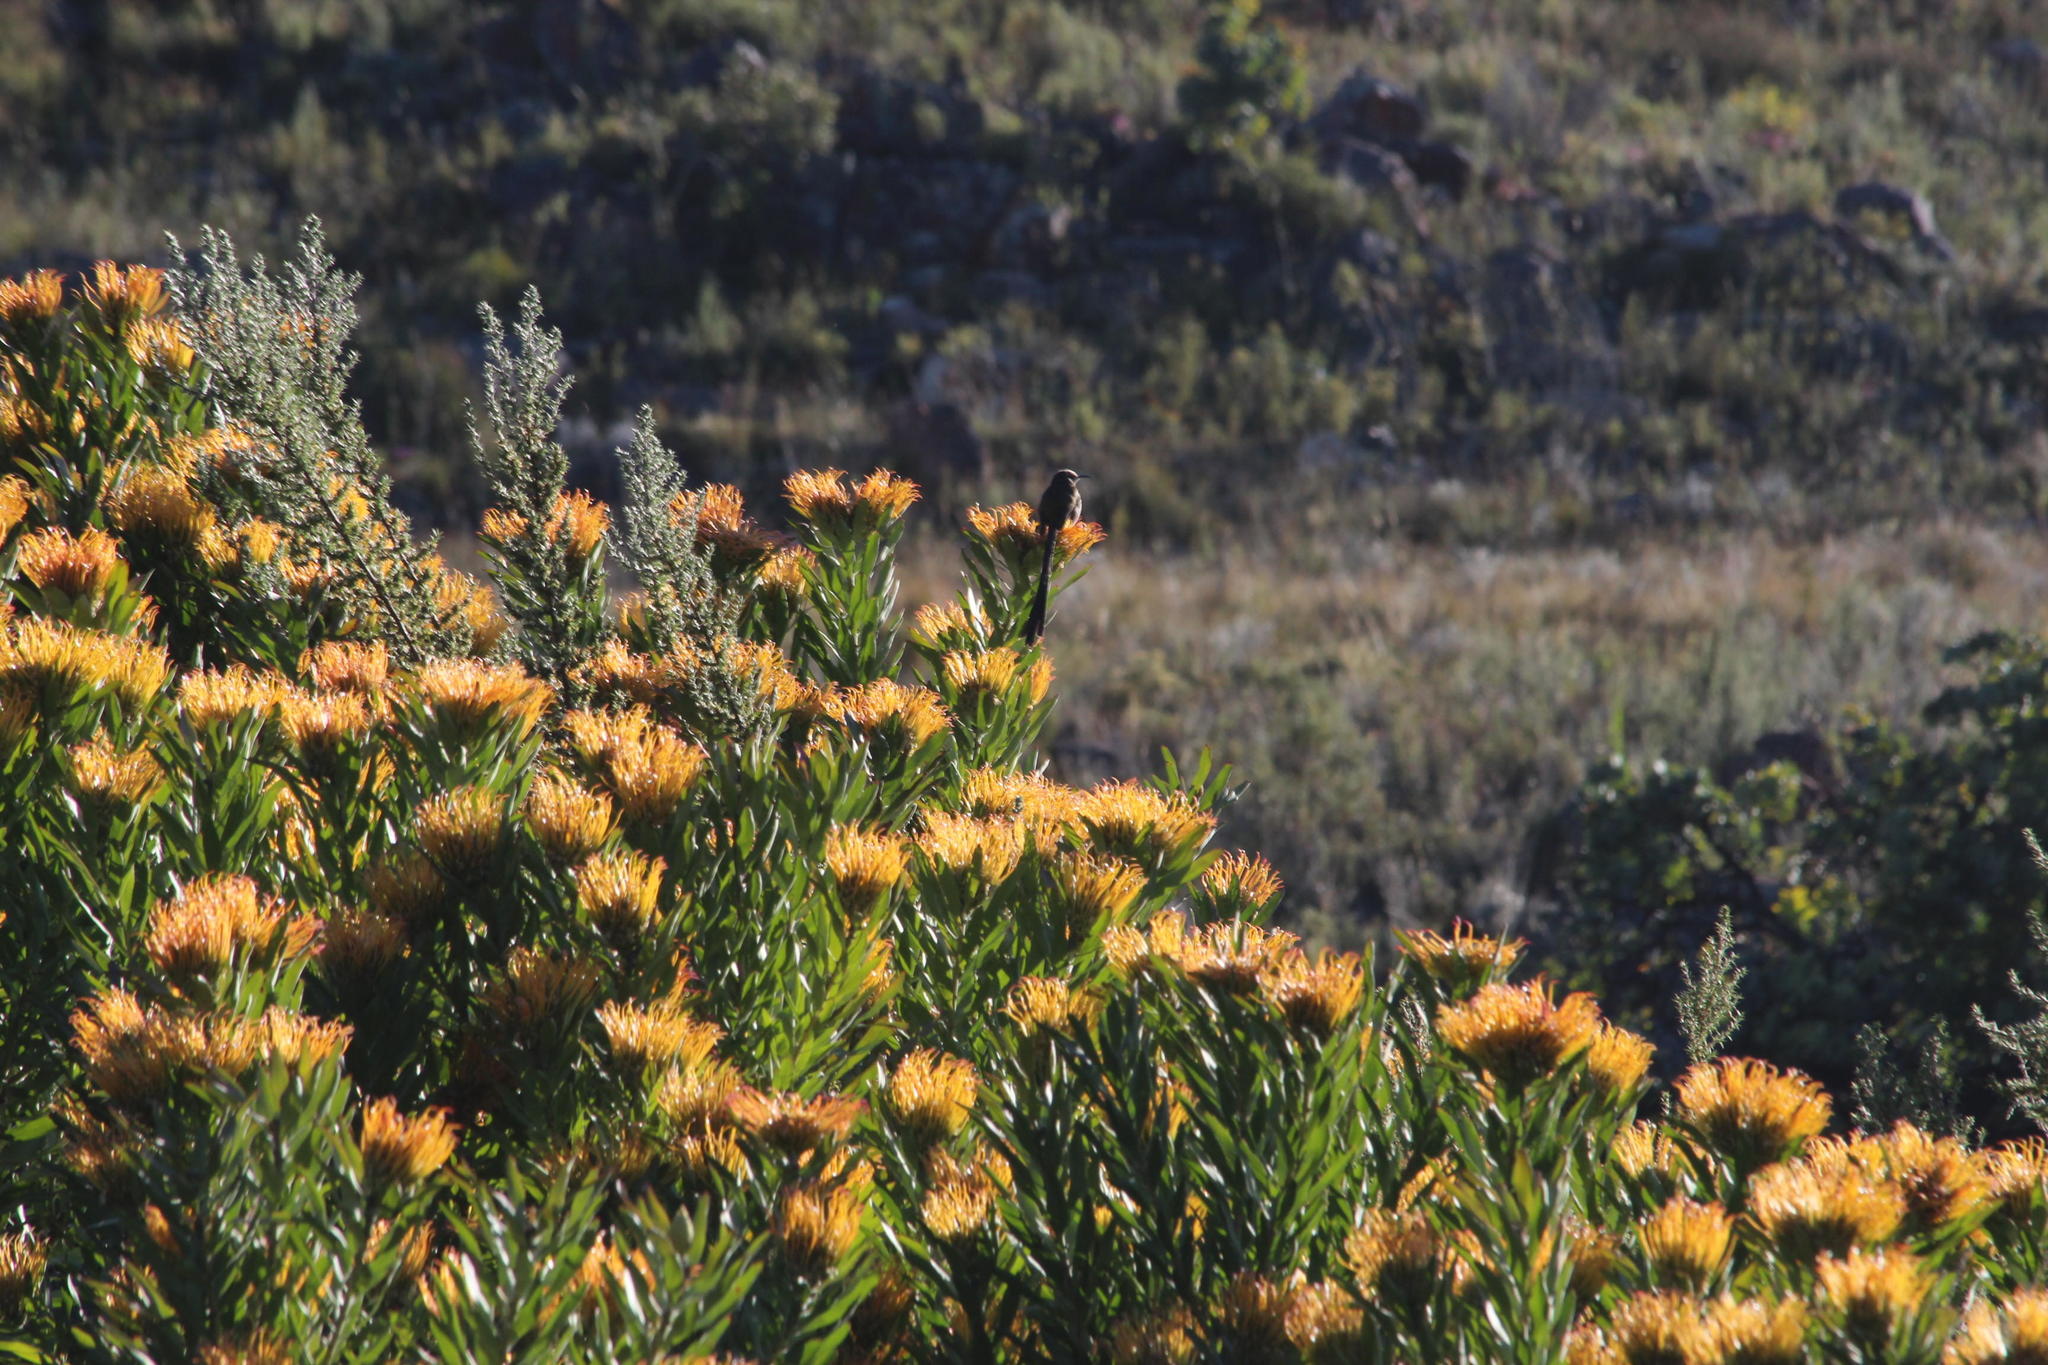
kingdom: Plantae
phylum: Tracheophyta
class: Magnoliopsida
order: Proteales
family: Proteaceae
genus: Leucospermum
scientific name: Leucospermum catherinae
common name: Catherine-wheel pincushion
